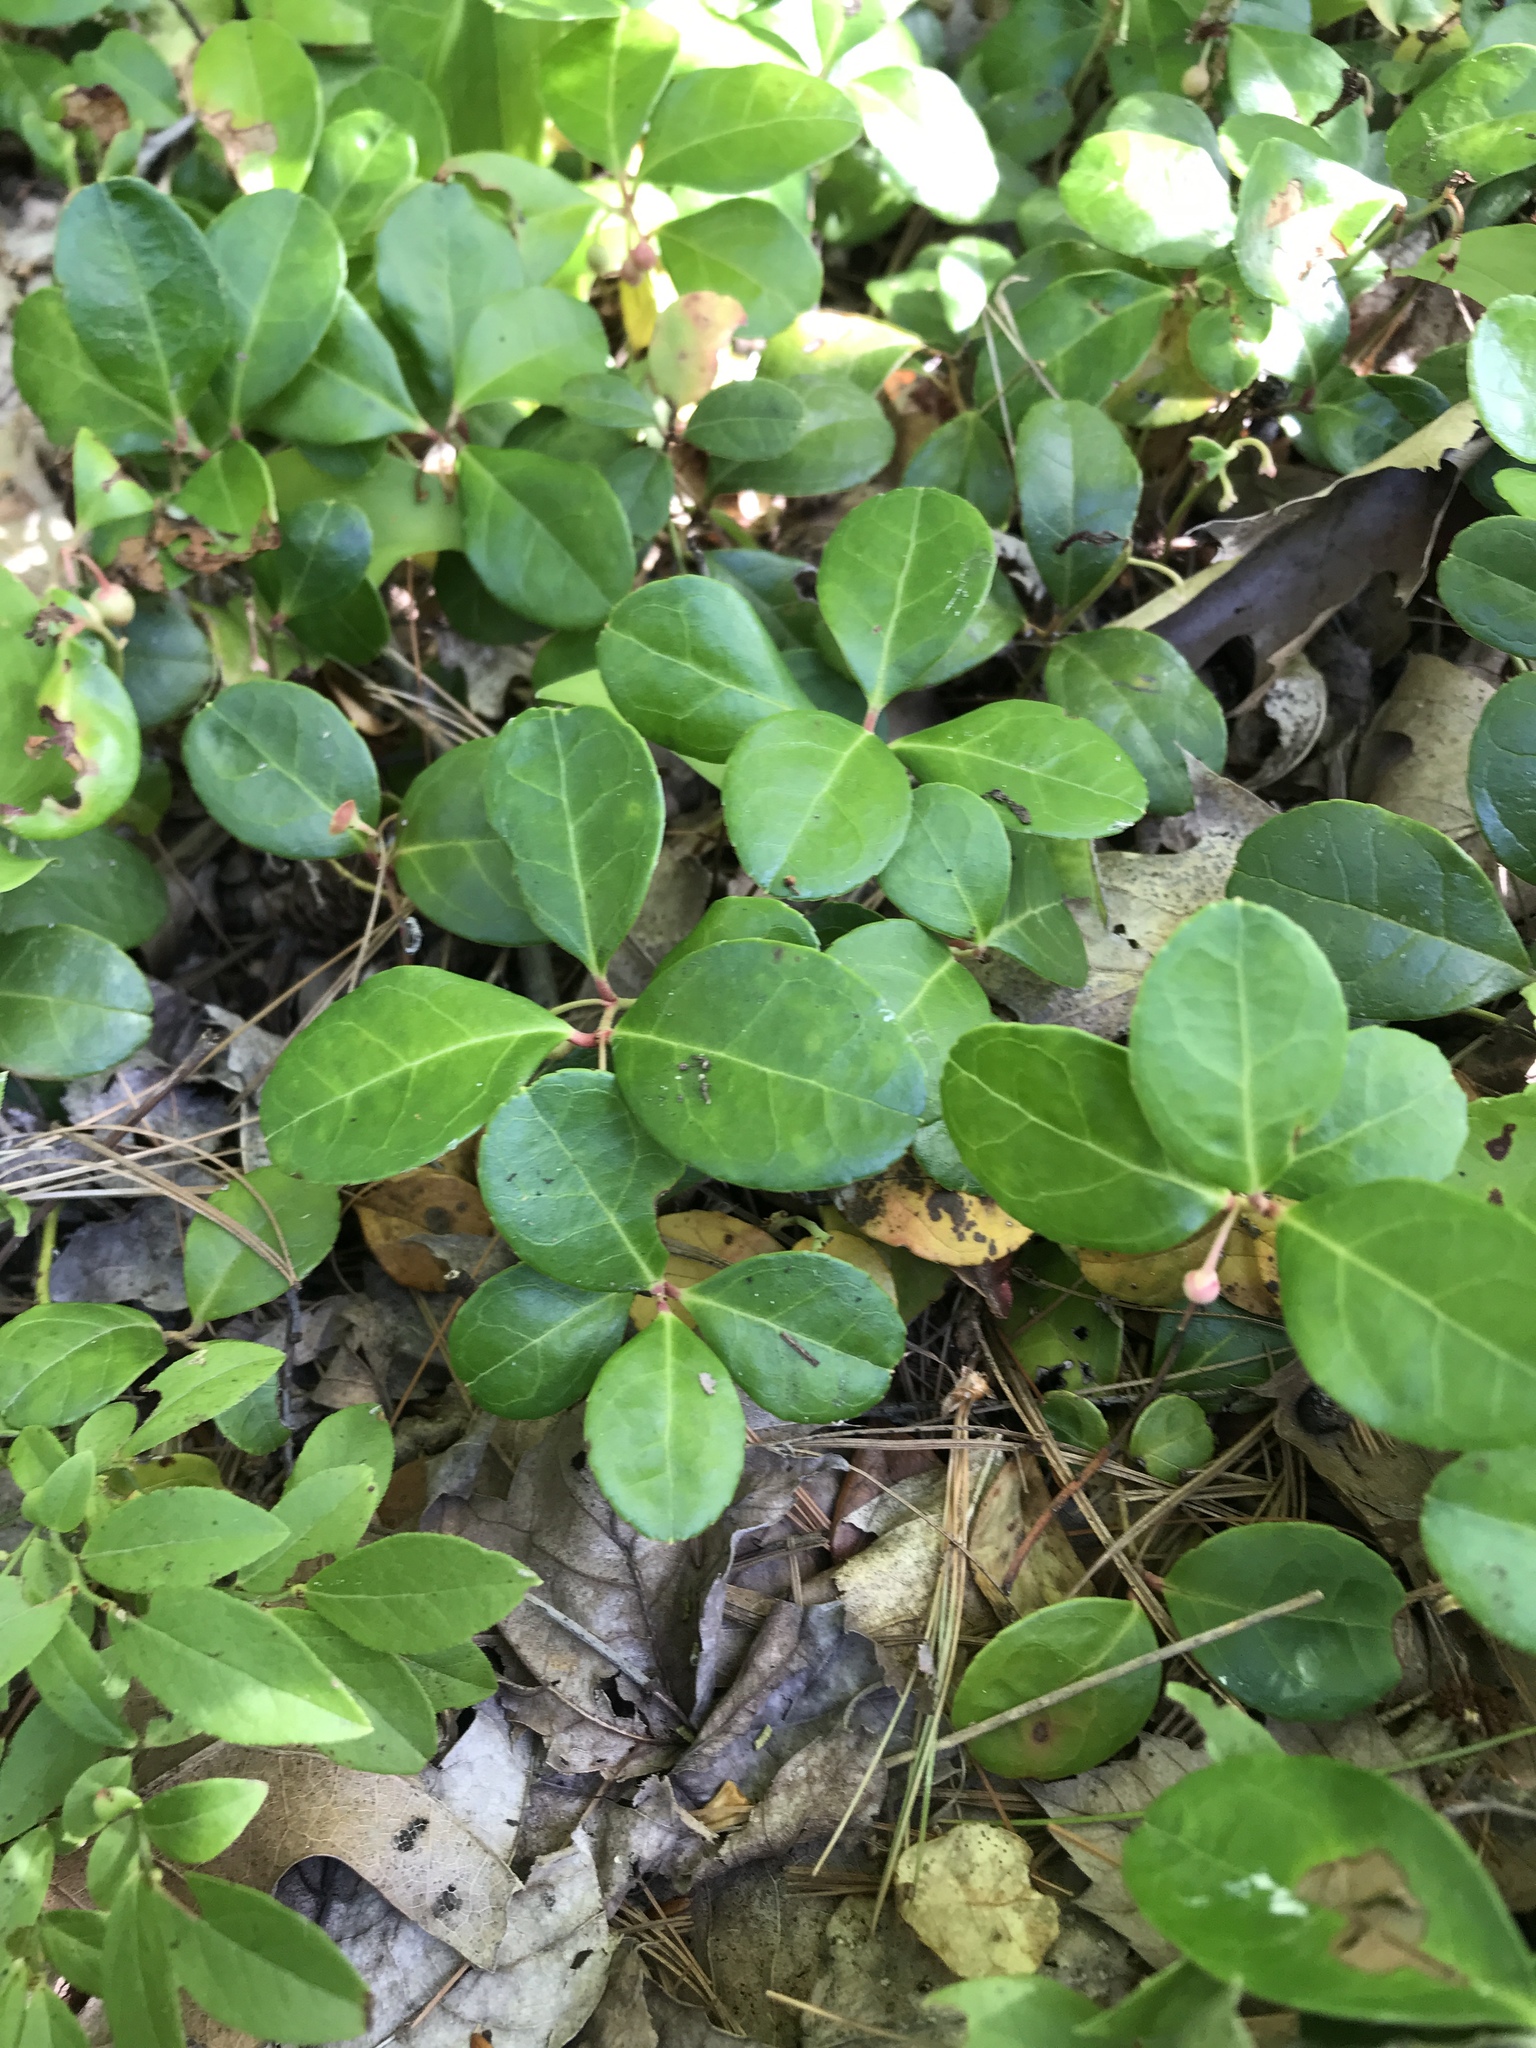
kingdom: Plantae
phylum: Tracheophyta
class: Magnoliopsida
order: Ericales
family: Ericaceae
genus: Gaultheria
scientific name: Gaultheria procumbens
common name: Checkerberry
